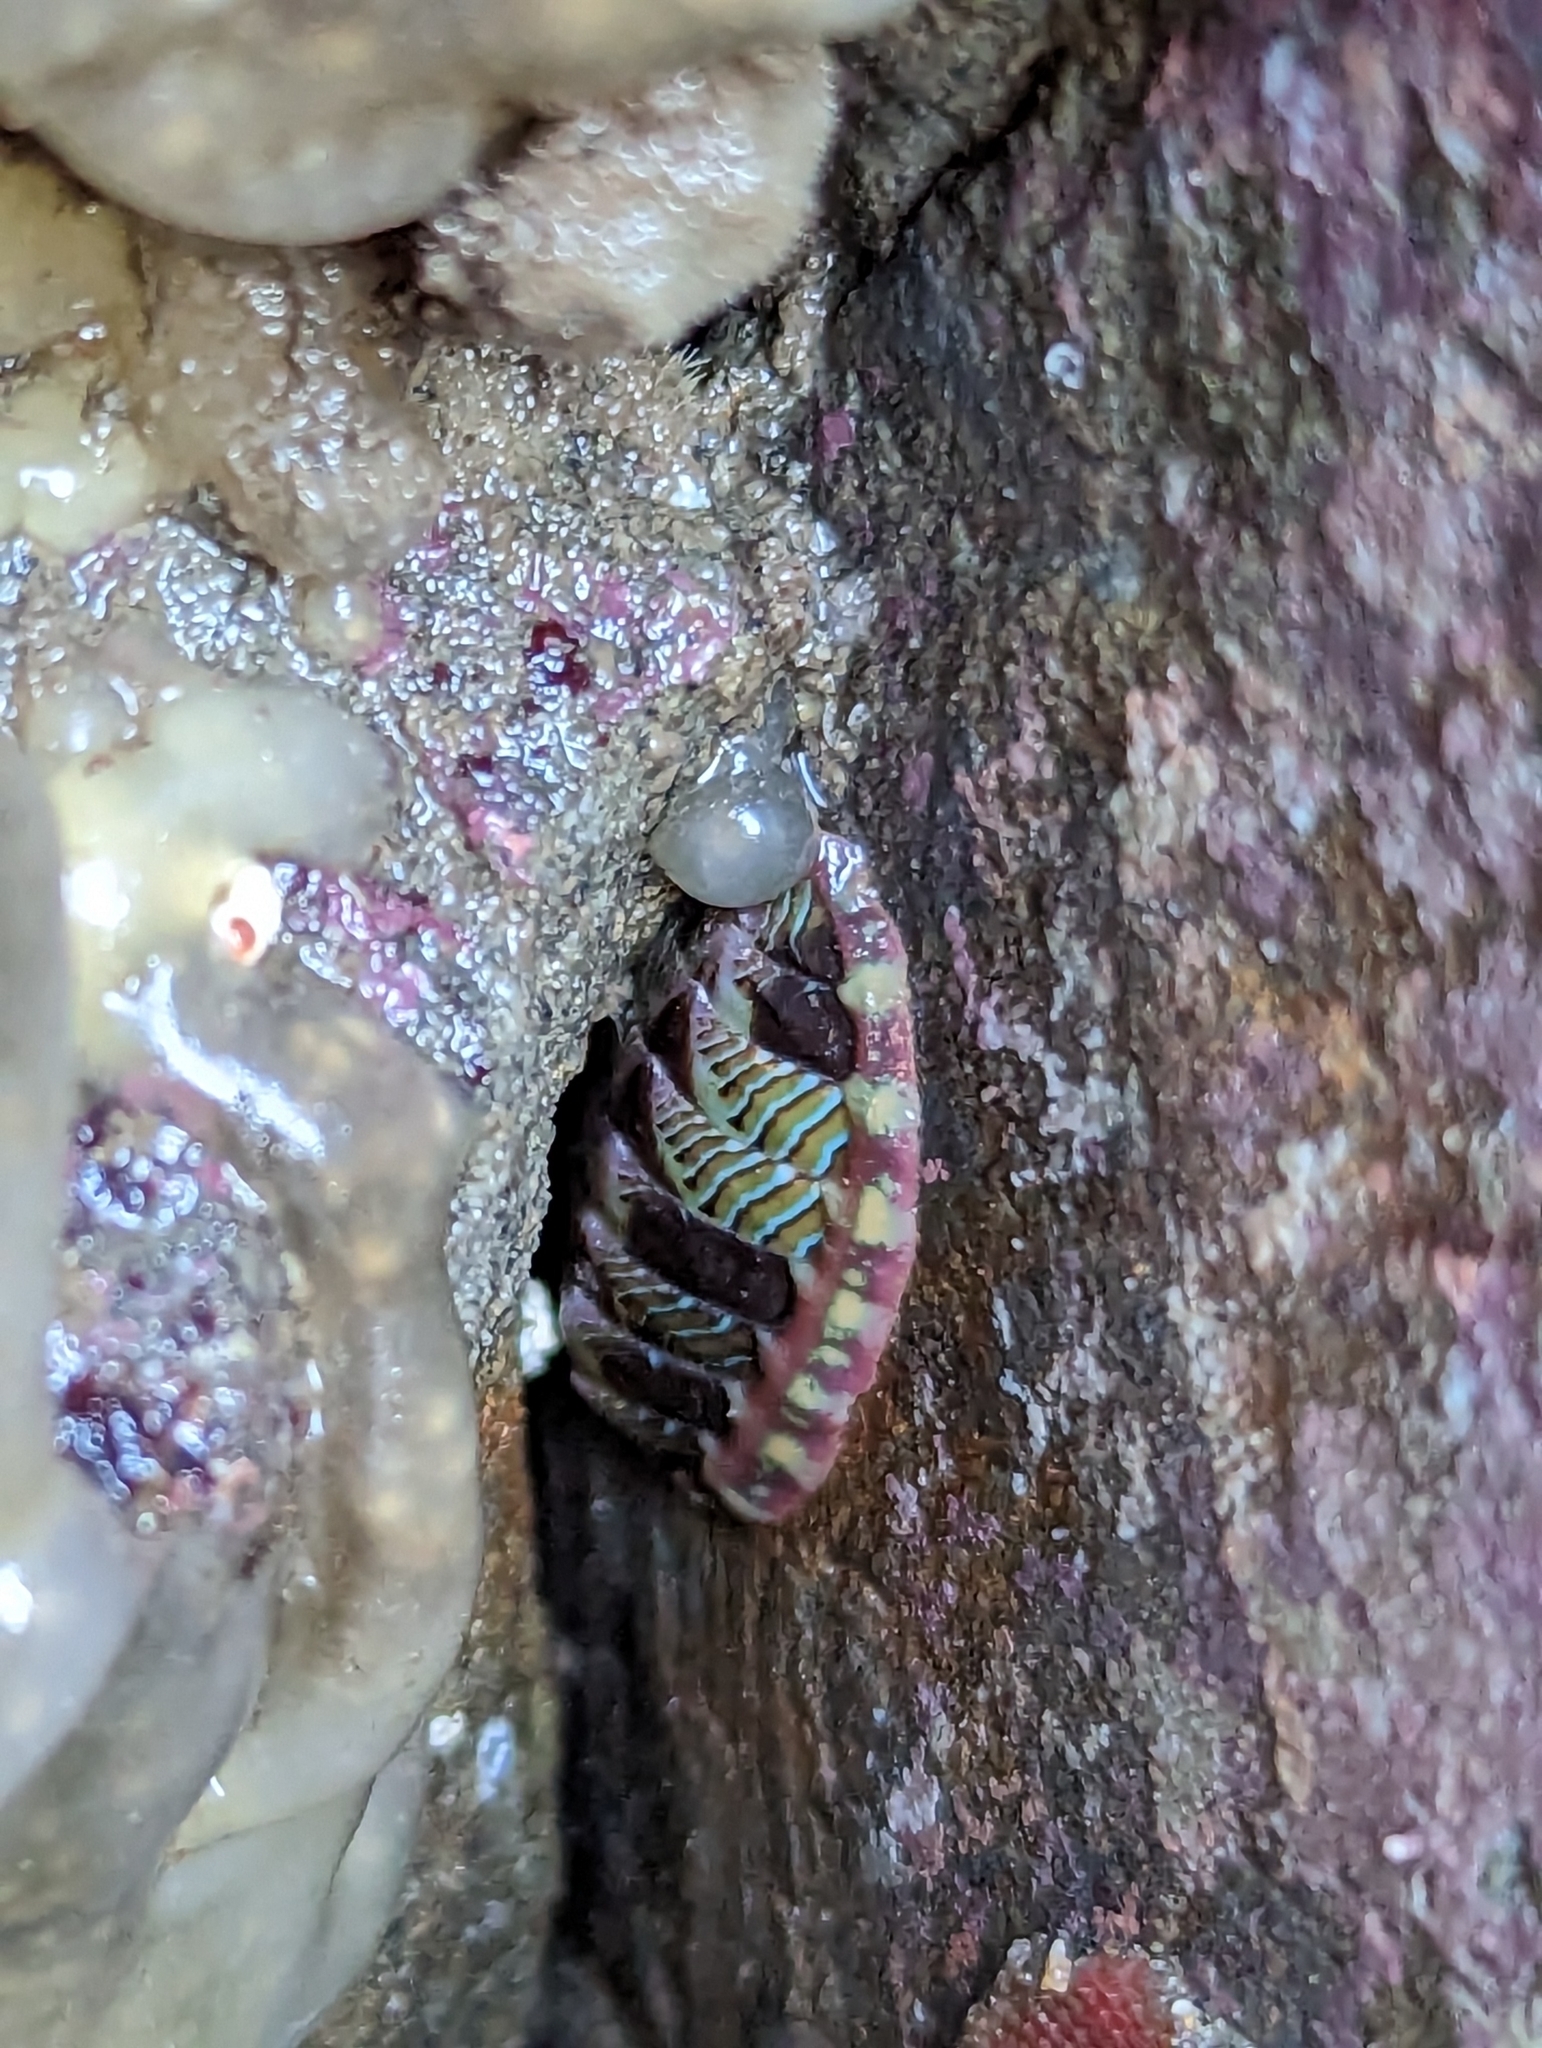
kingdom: Animalia
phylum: Mollusca
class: Polyplacophora
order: Chitonida
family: Tonicellidae
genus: Tonicella
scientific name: Tonicella lineata
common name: Lined chiton
